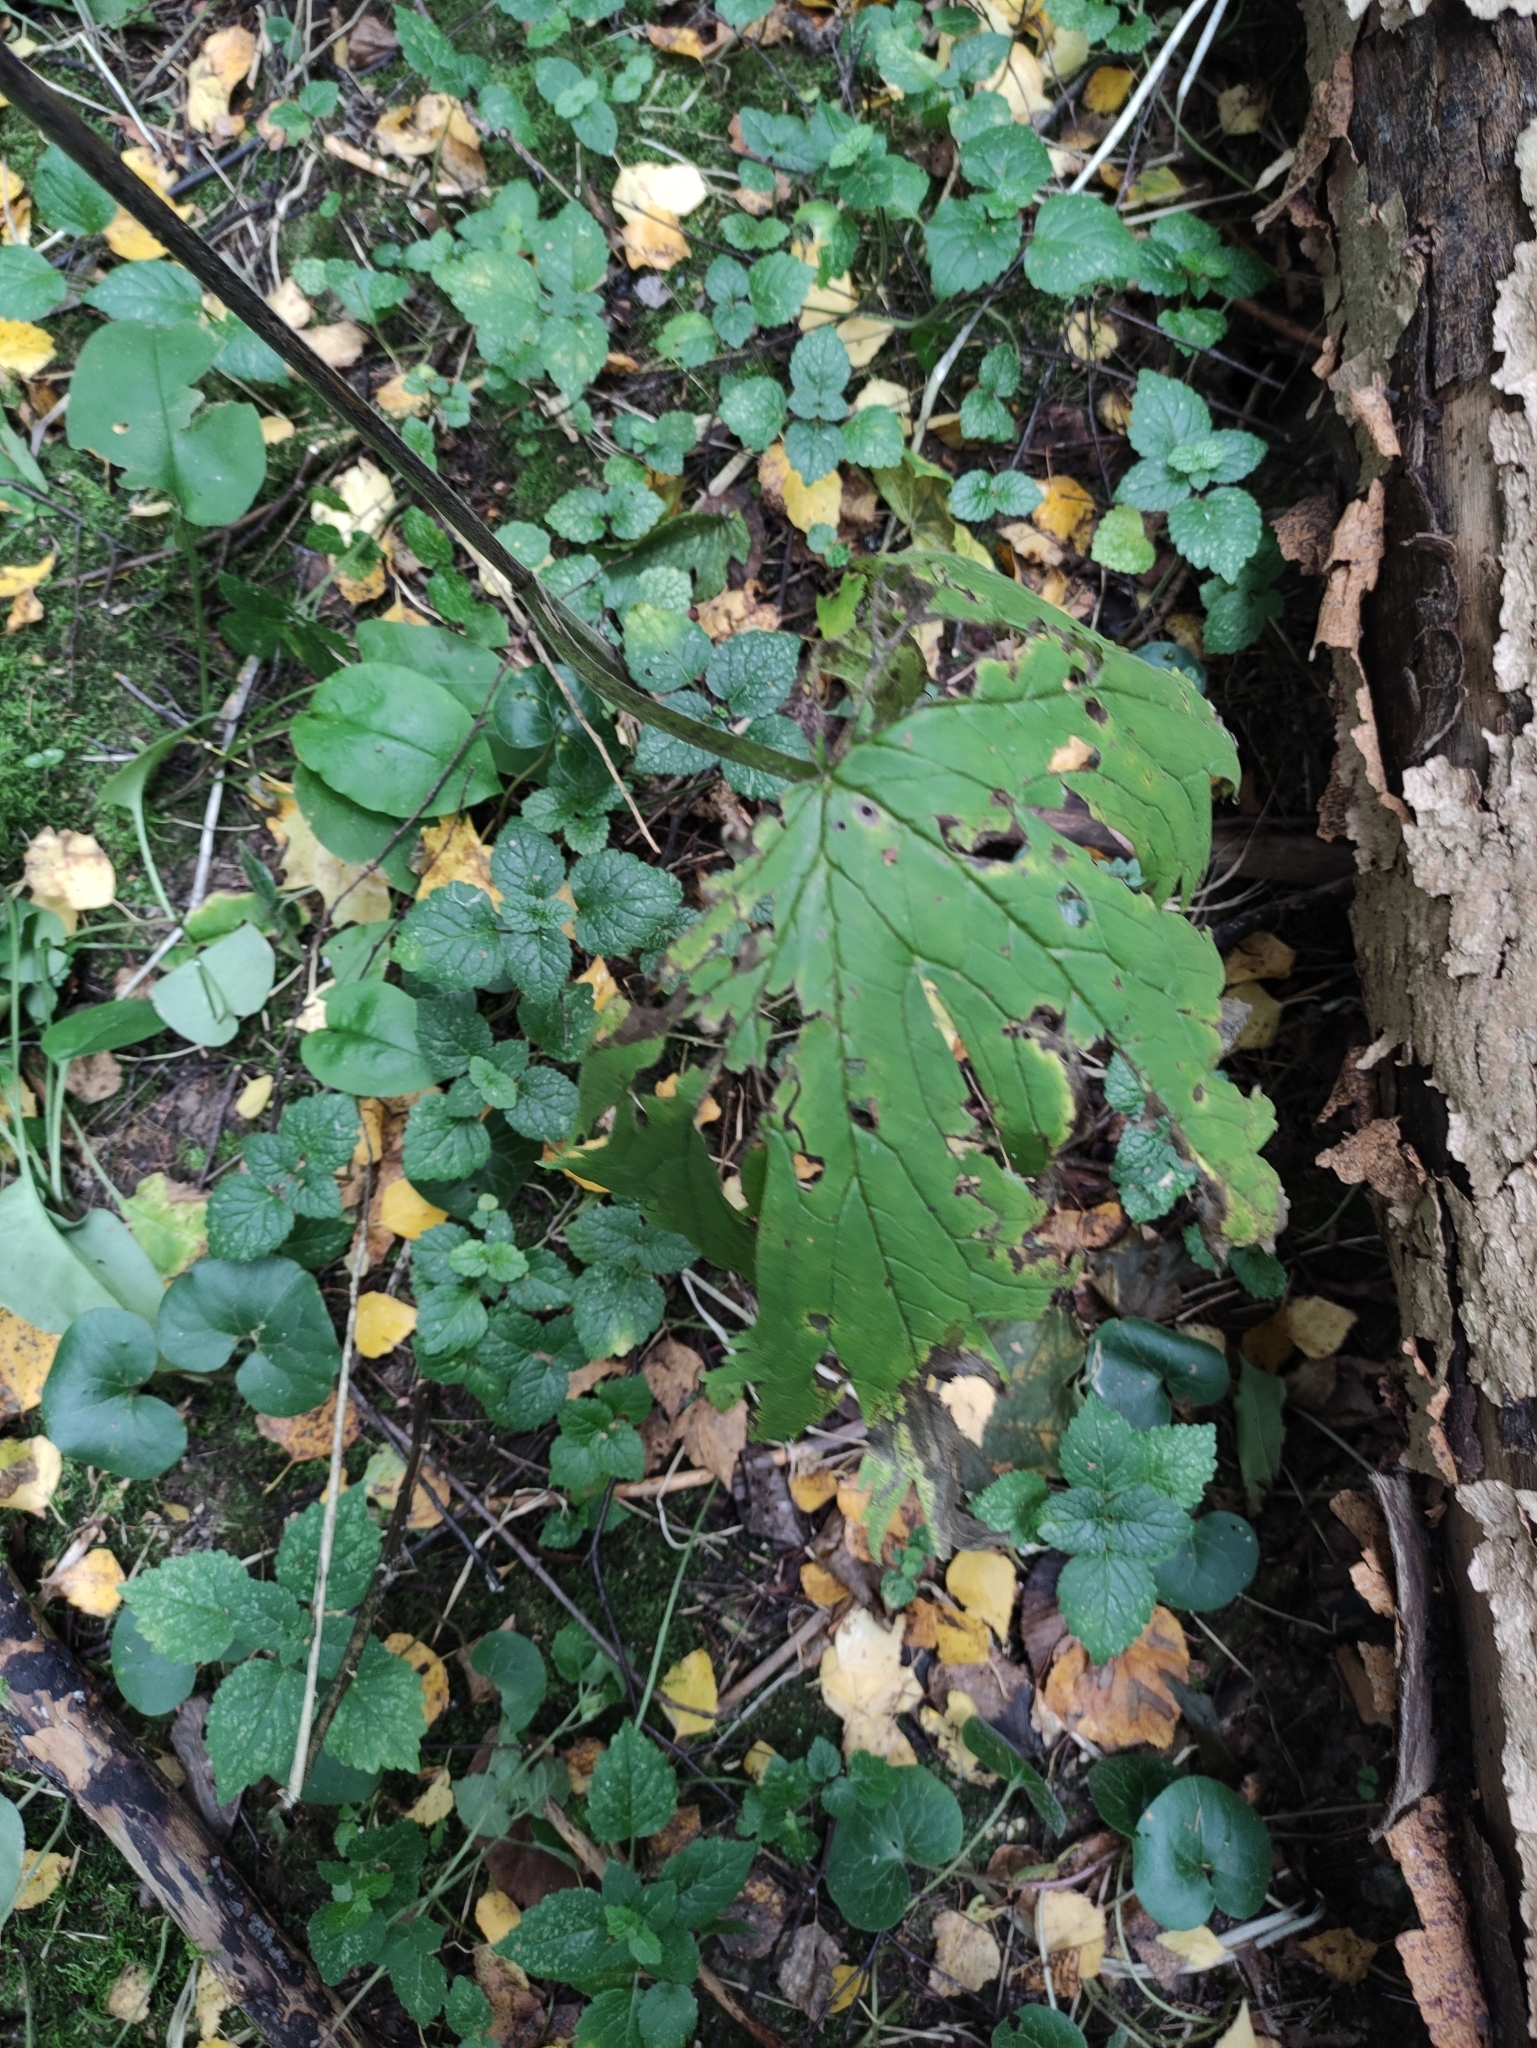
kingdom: Plantae
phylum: Tracheophyta
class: Magnoliopsida
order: Ranunculales
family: Ranunculaceae
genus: Aconitum
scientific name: Aconitum septentrionale
